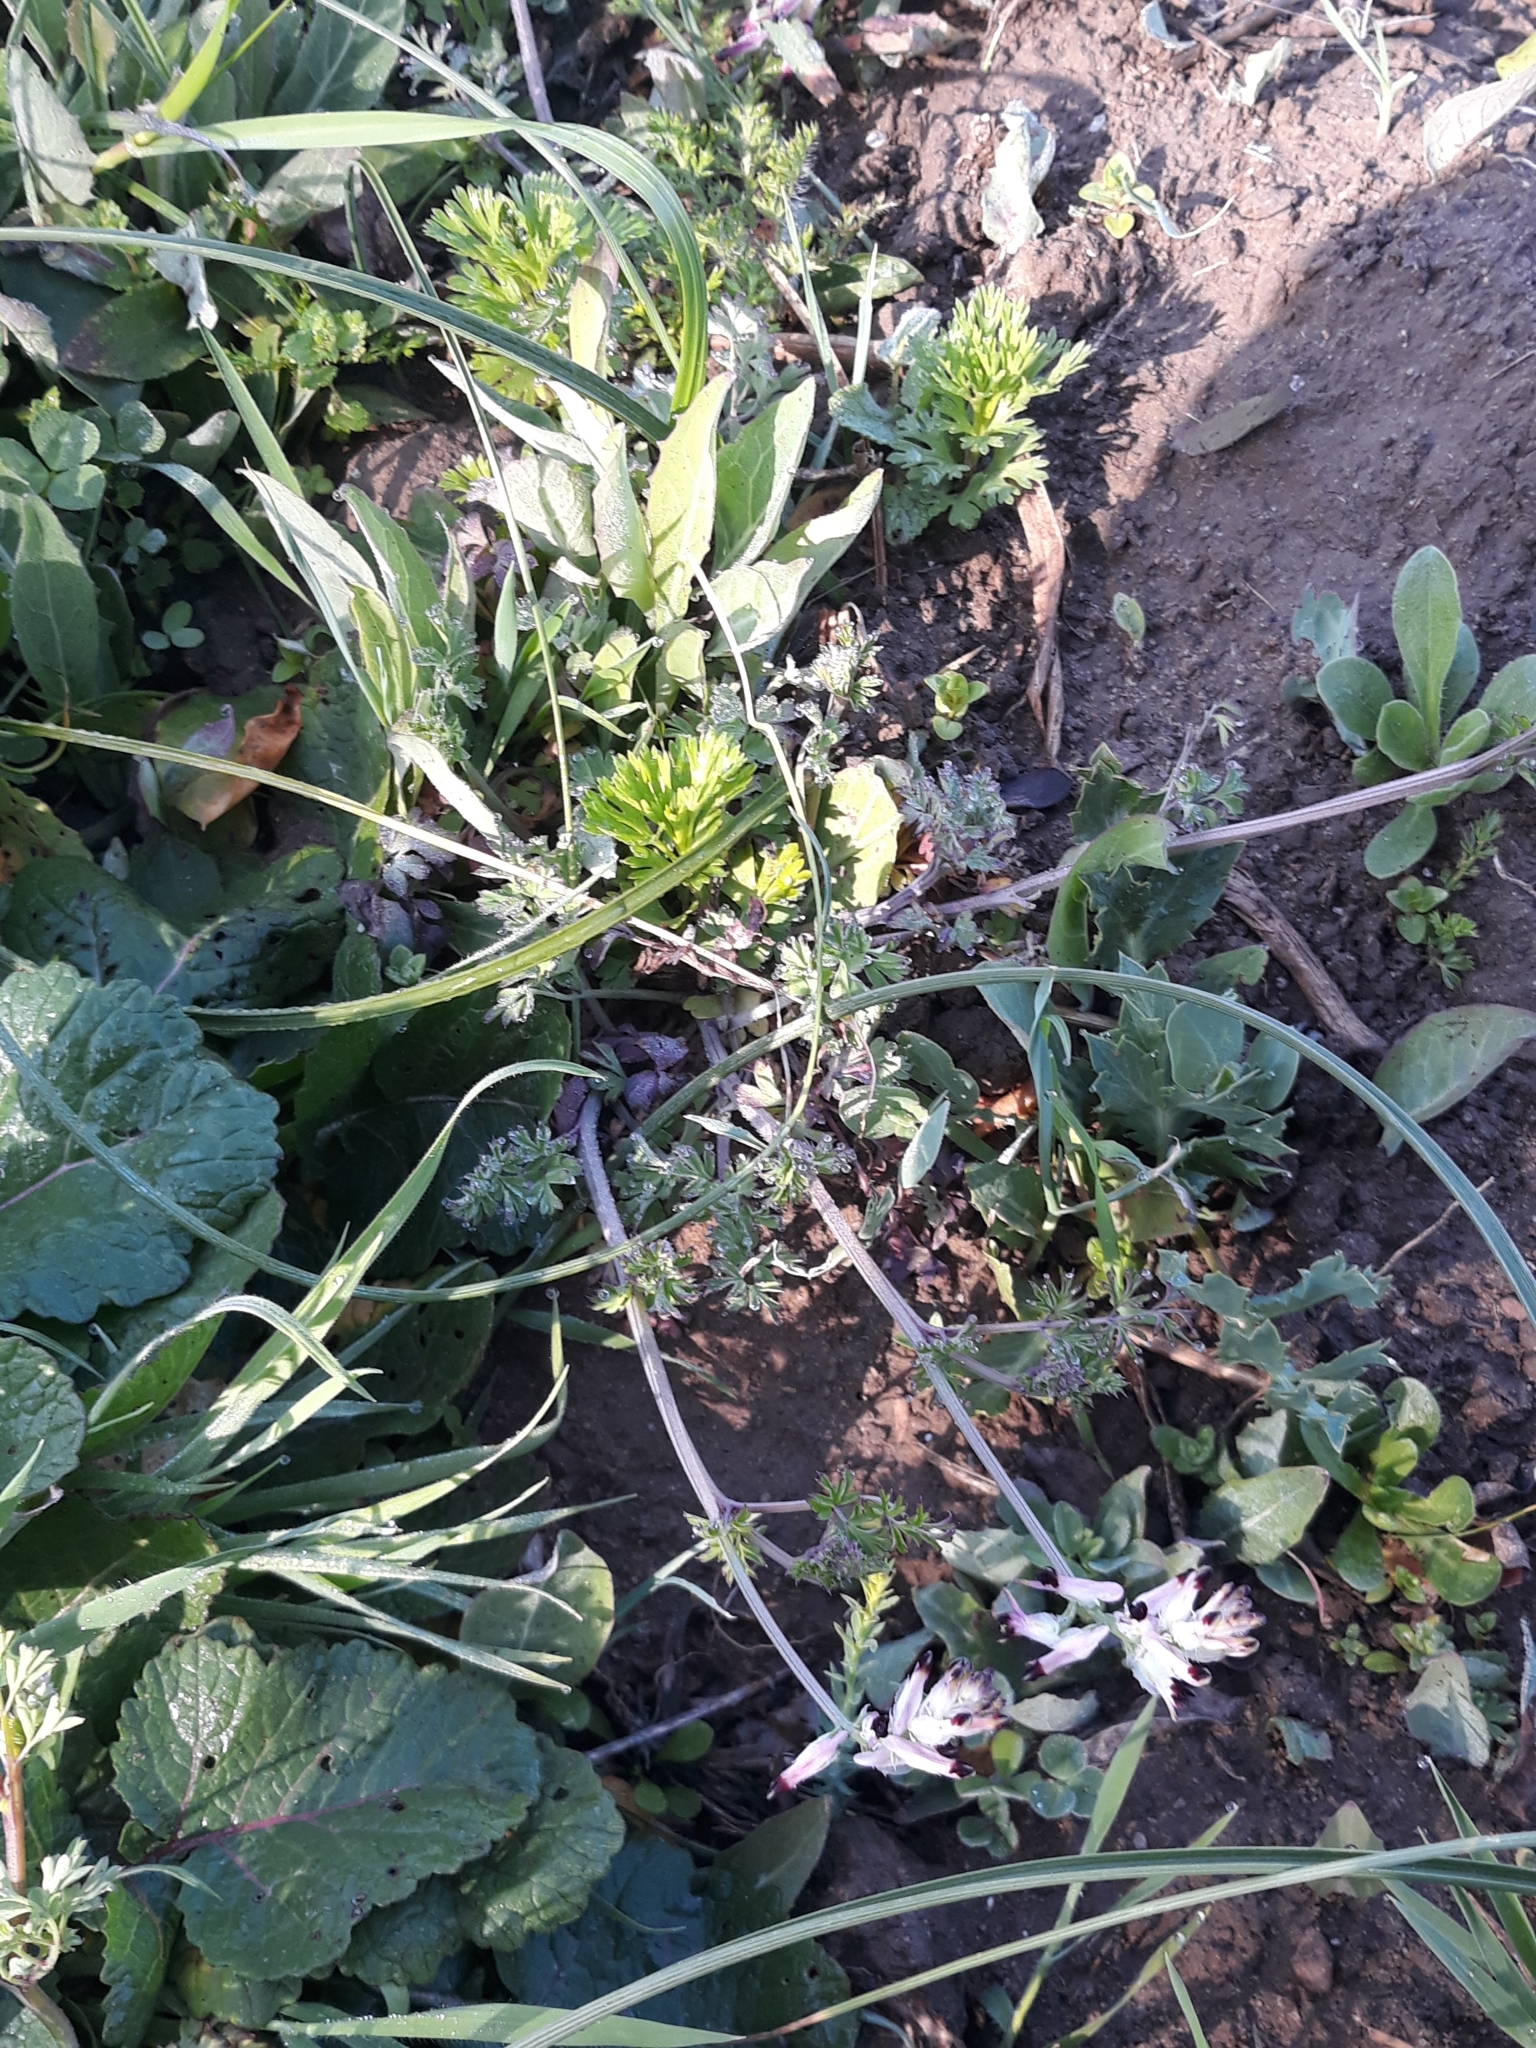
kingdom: Plantae
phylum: Tracheophyta
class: Magnoliopsida
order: Ranunculales
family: Papaveraceae
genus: Fumaria
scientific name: Fumaria capreolata
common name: White ramping-fumitory
